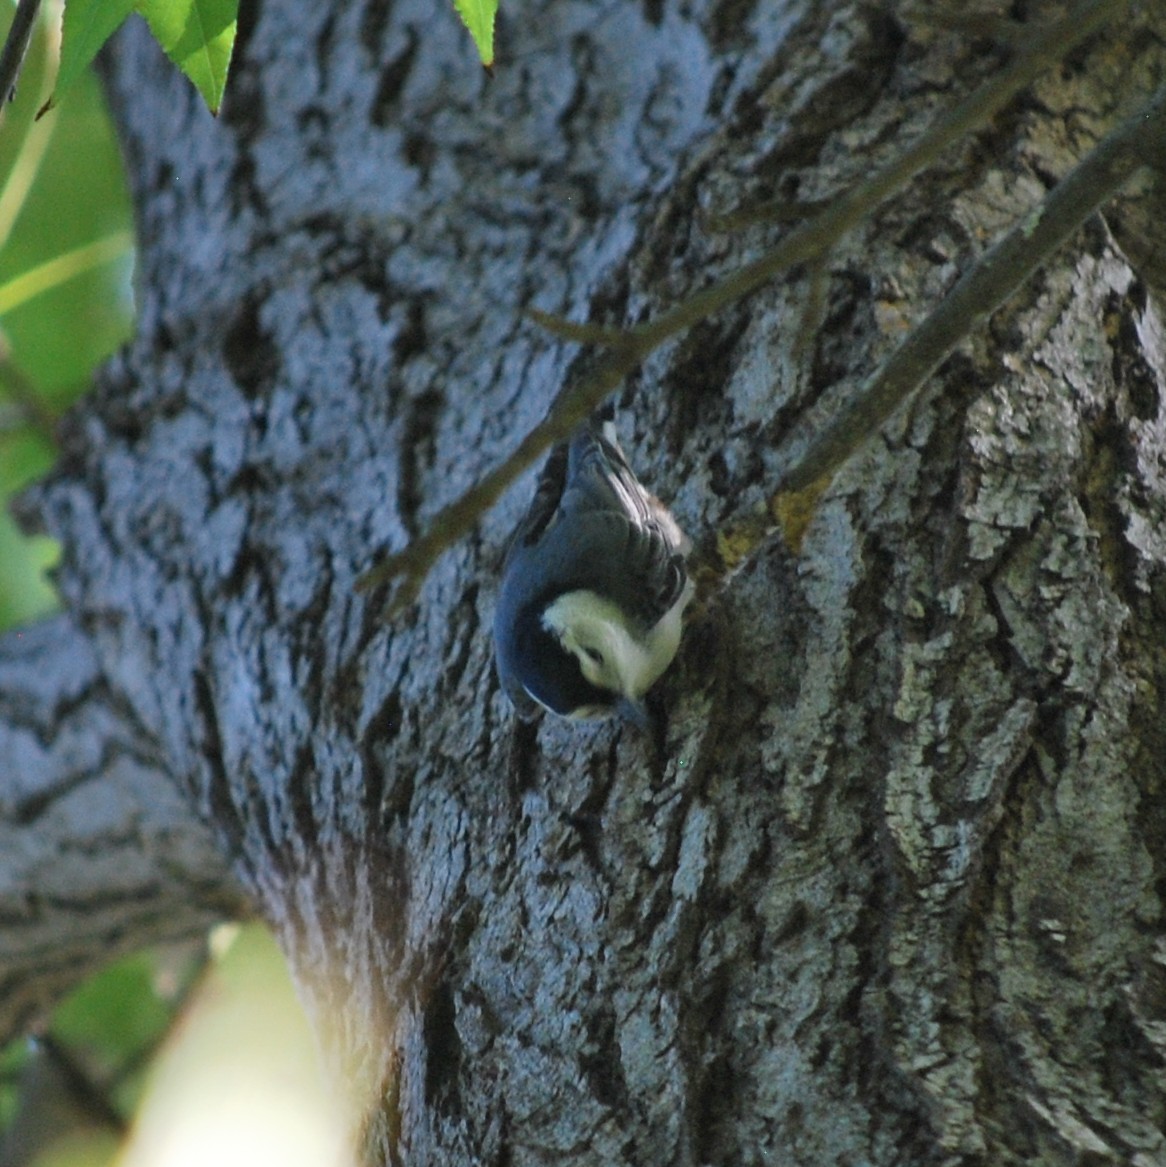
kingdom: Animalia
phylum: Chordata
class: Aves
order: Passeriformes
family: Sittidae
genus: Sitta
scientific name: Sitta carolinensis
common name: White-breasted nuthatch
